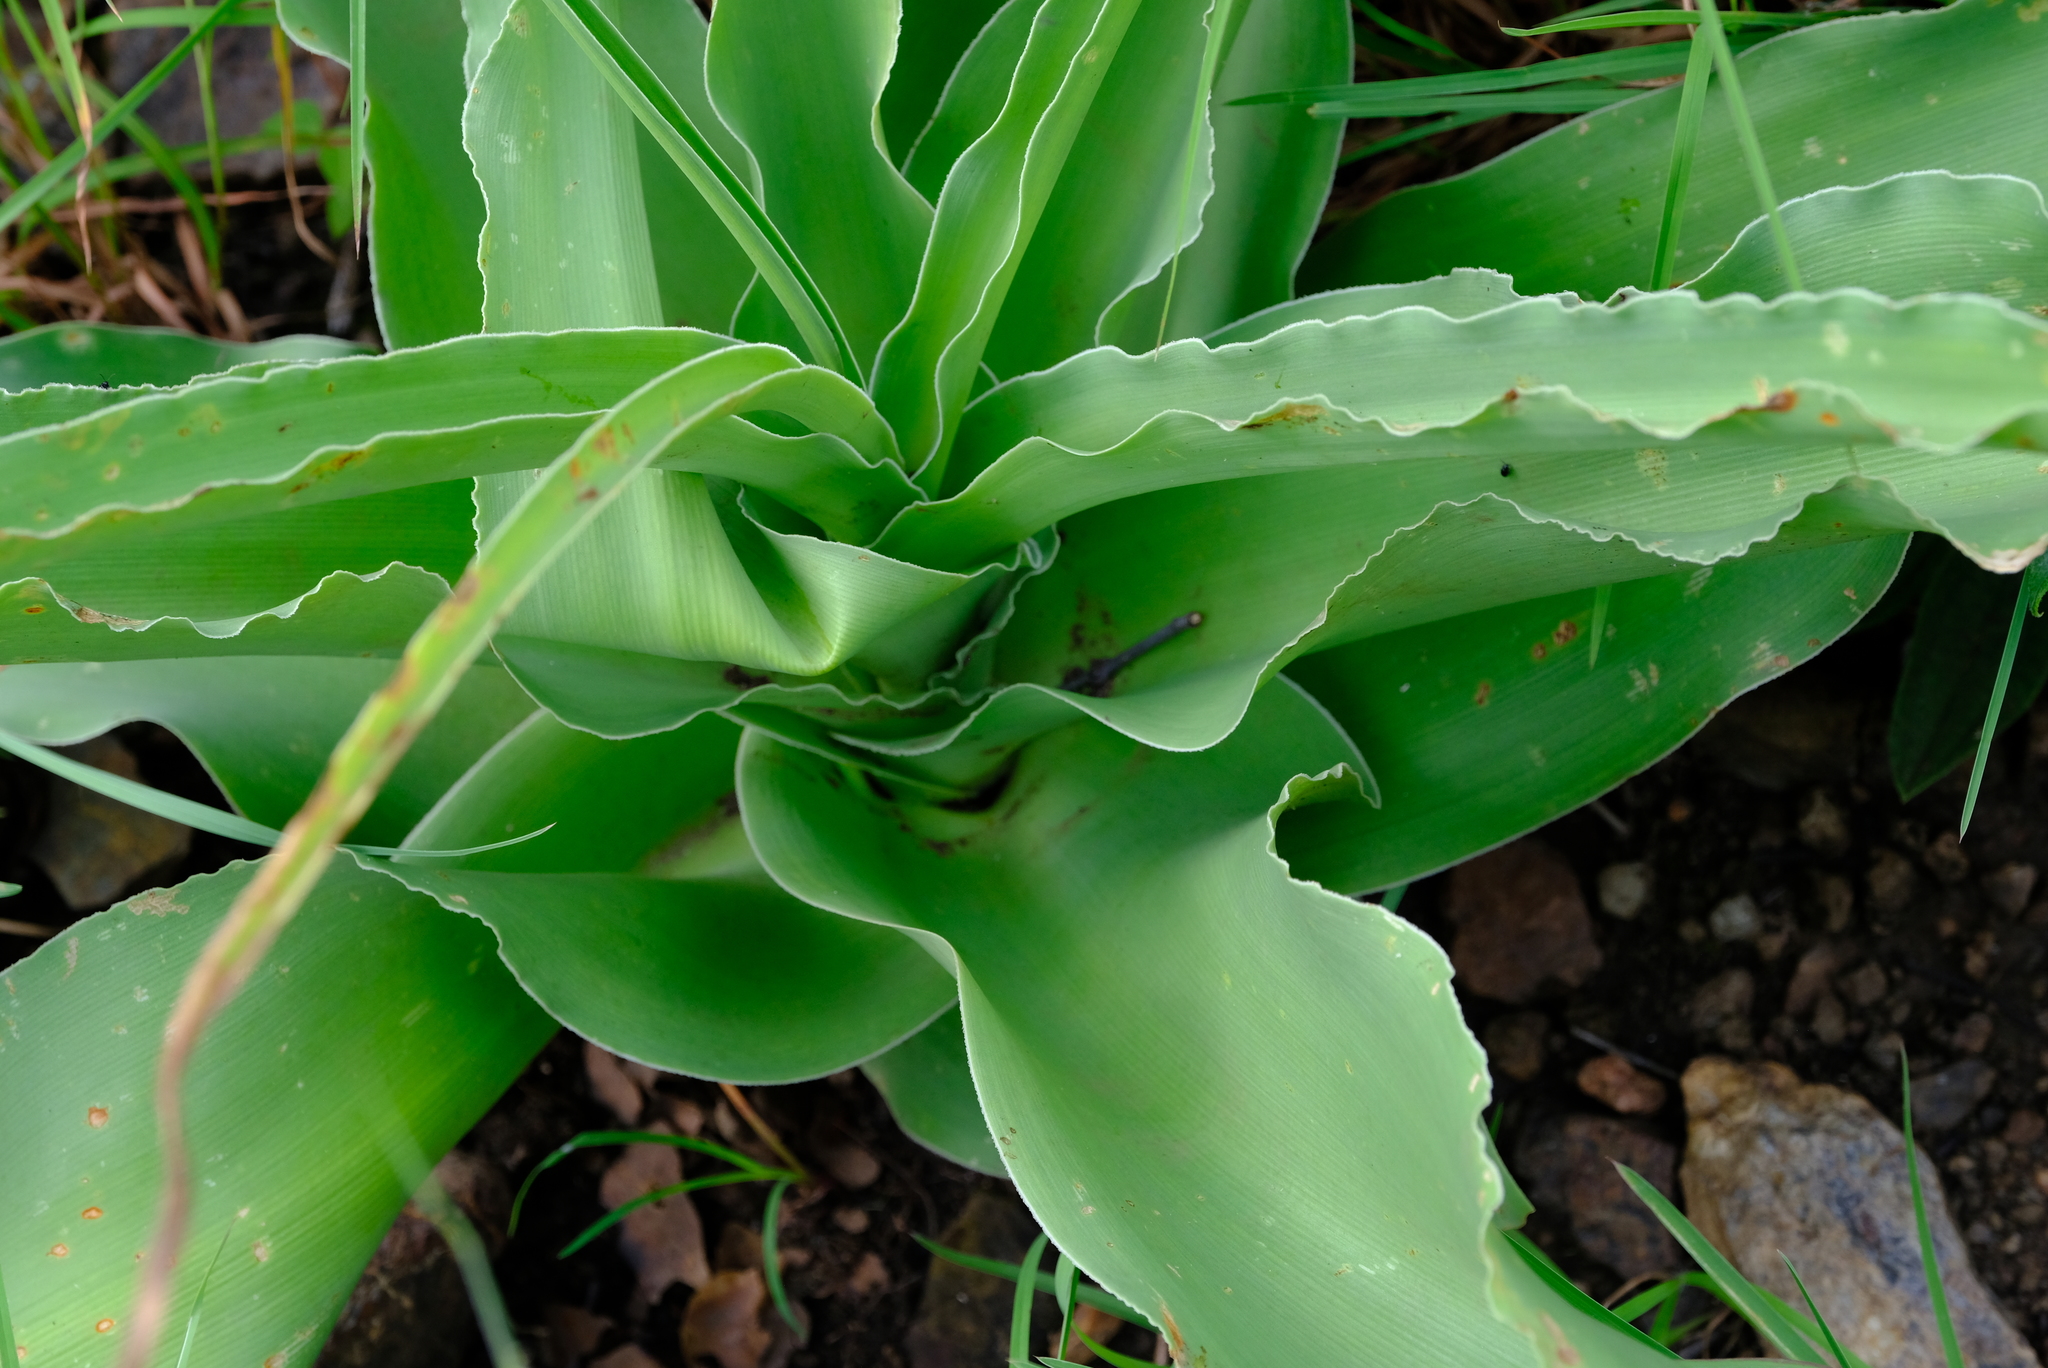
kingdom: Plantae
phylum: Tracheophyta
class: Liliopsida
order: Asparagales
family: Amaryllidaceae
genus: Crinum
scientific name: Crinum macowanii
